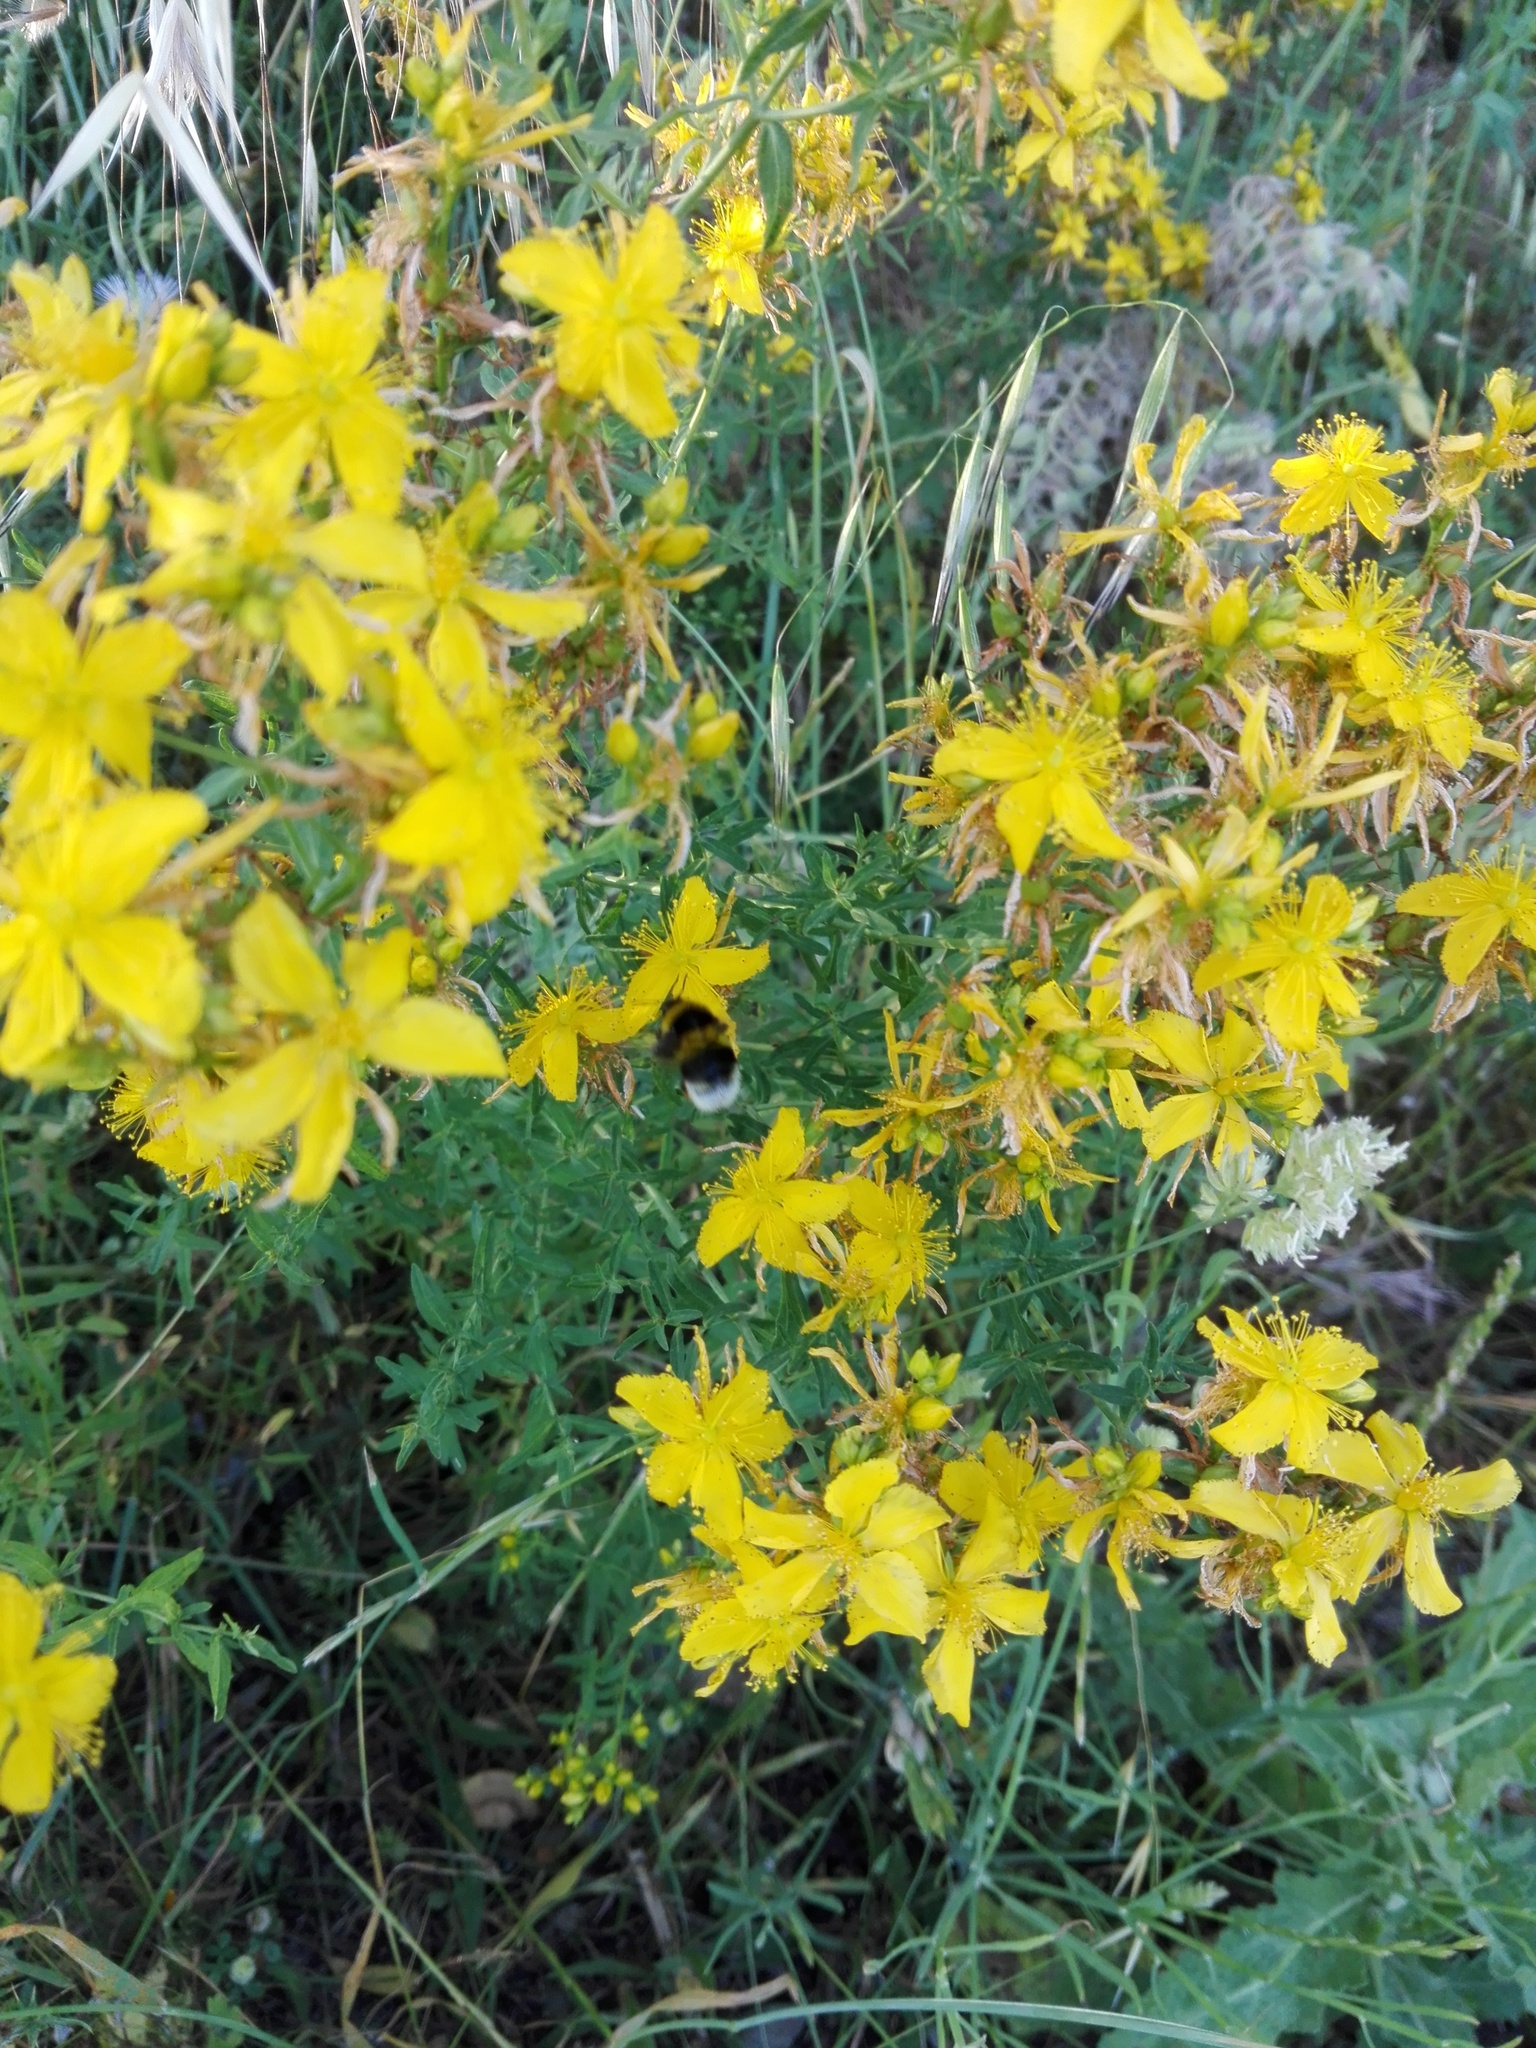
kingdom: Plantae
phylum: Tracheophyta
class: Magnoliopsida
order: Malpighiales
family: Hypericaceae
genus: Hypericum
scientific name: Hypericum perforatum
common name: Common st. johnswort
